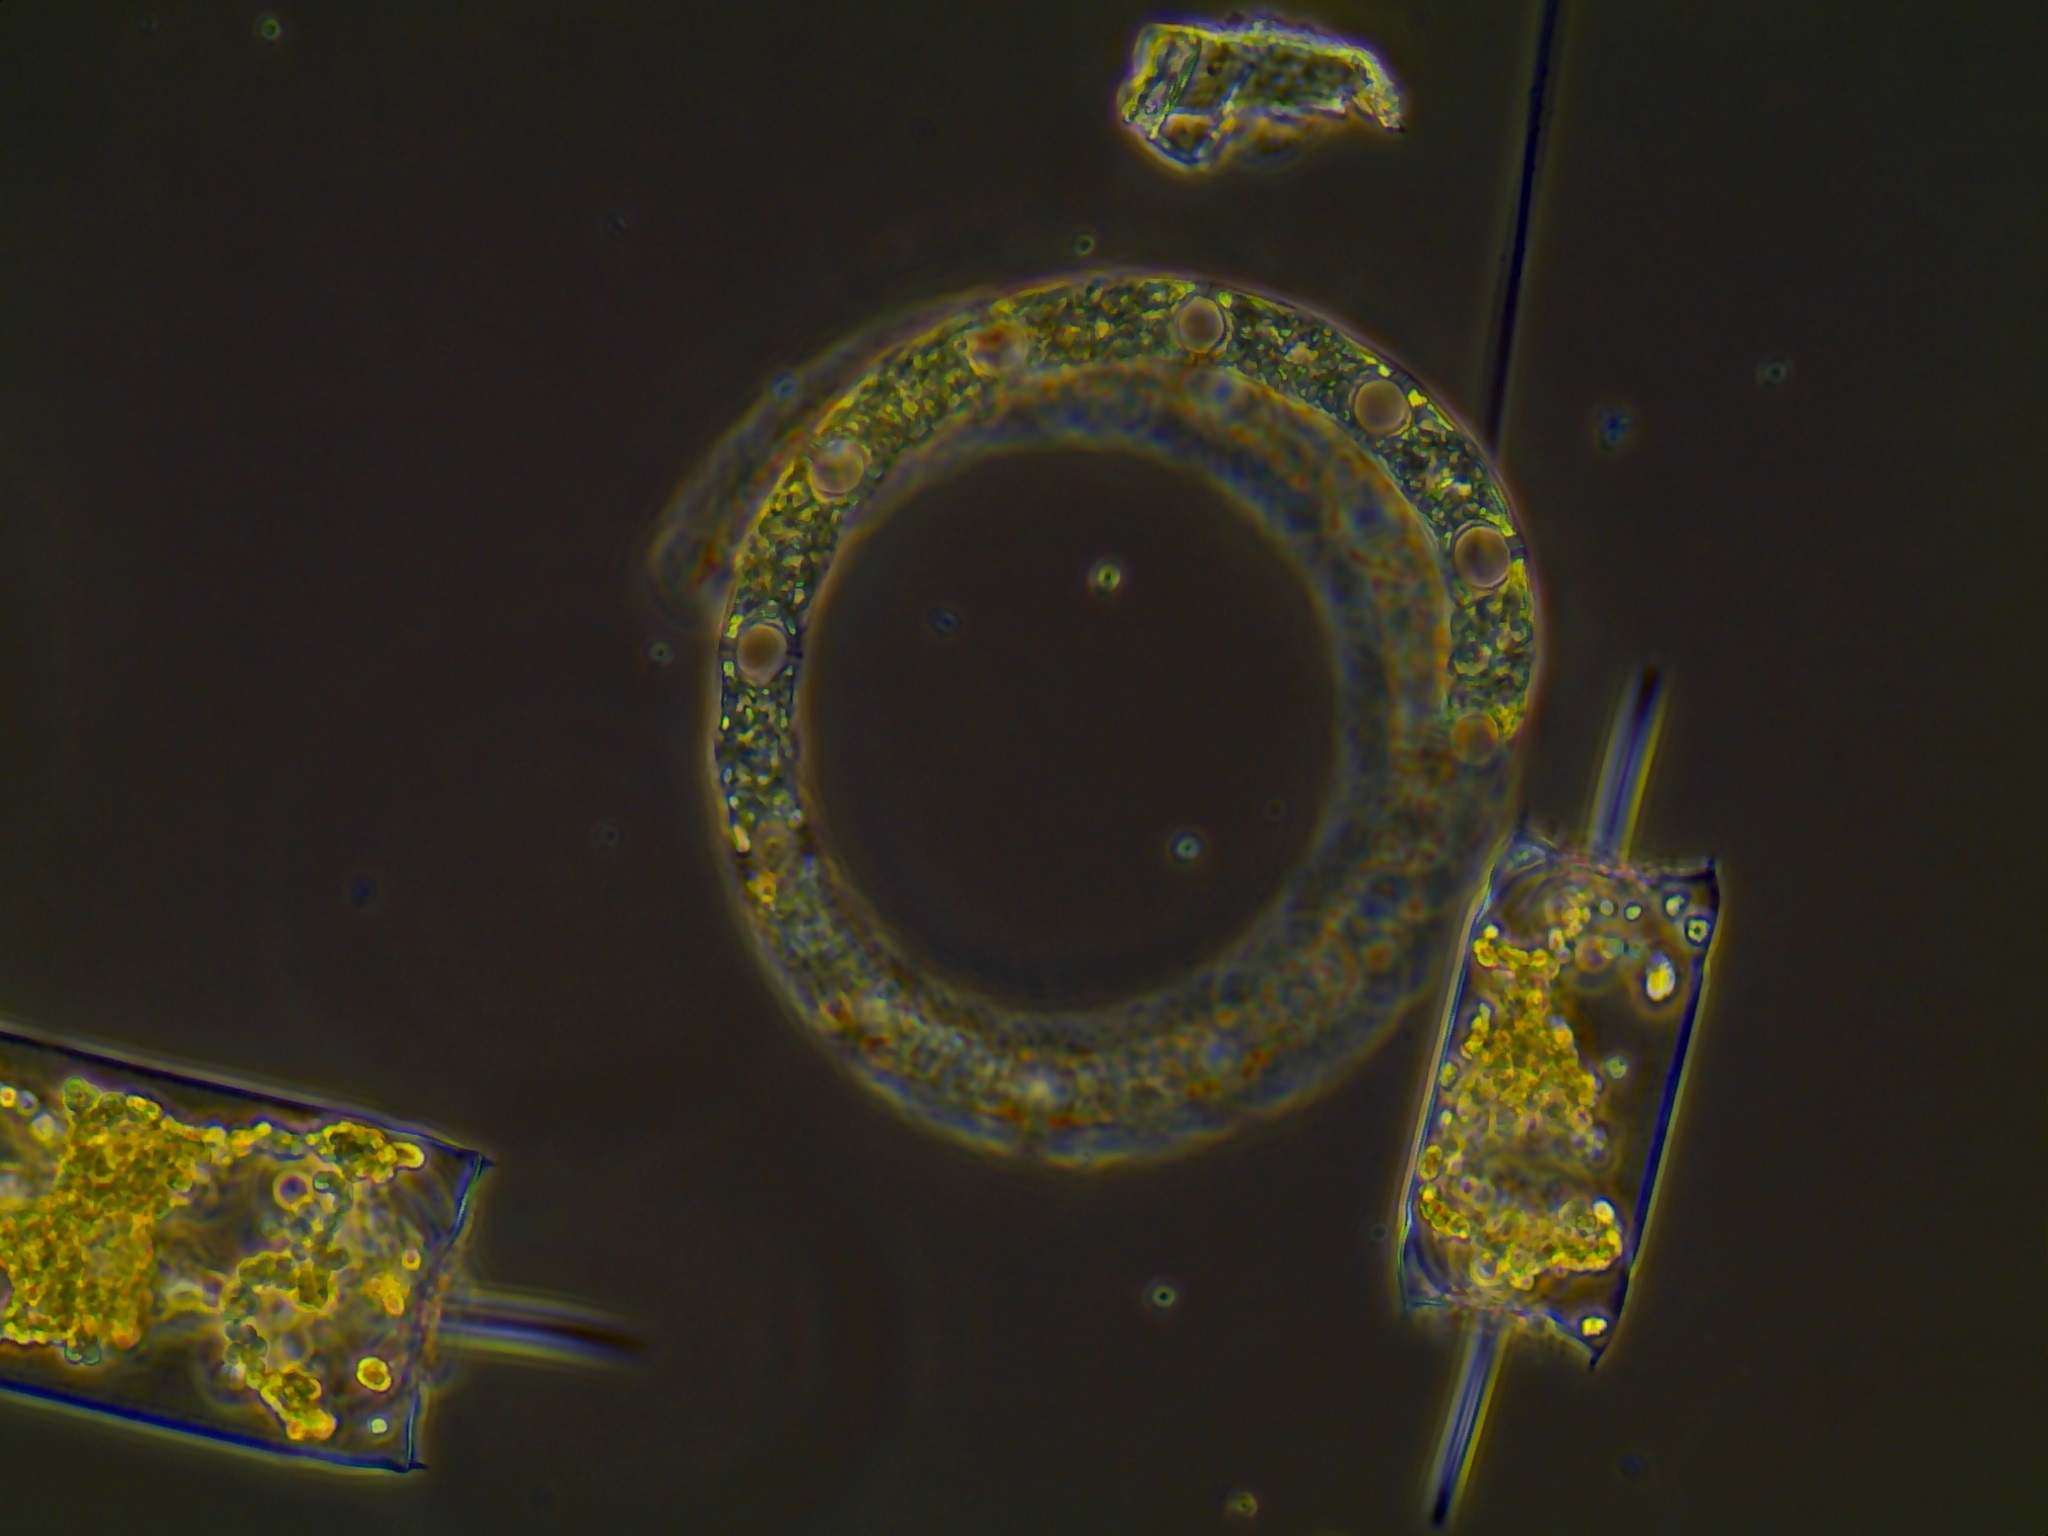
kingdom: Chromista
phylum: Ochrophyta
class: Bacillariophyceae
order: Hemiaulales
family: Hemiaulaceae
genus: Eucampia
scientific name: Eucampia zodiacus
